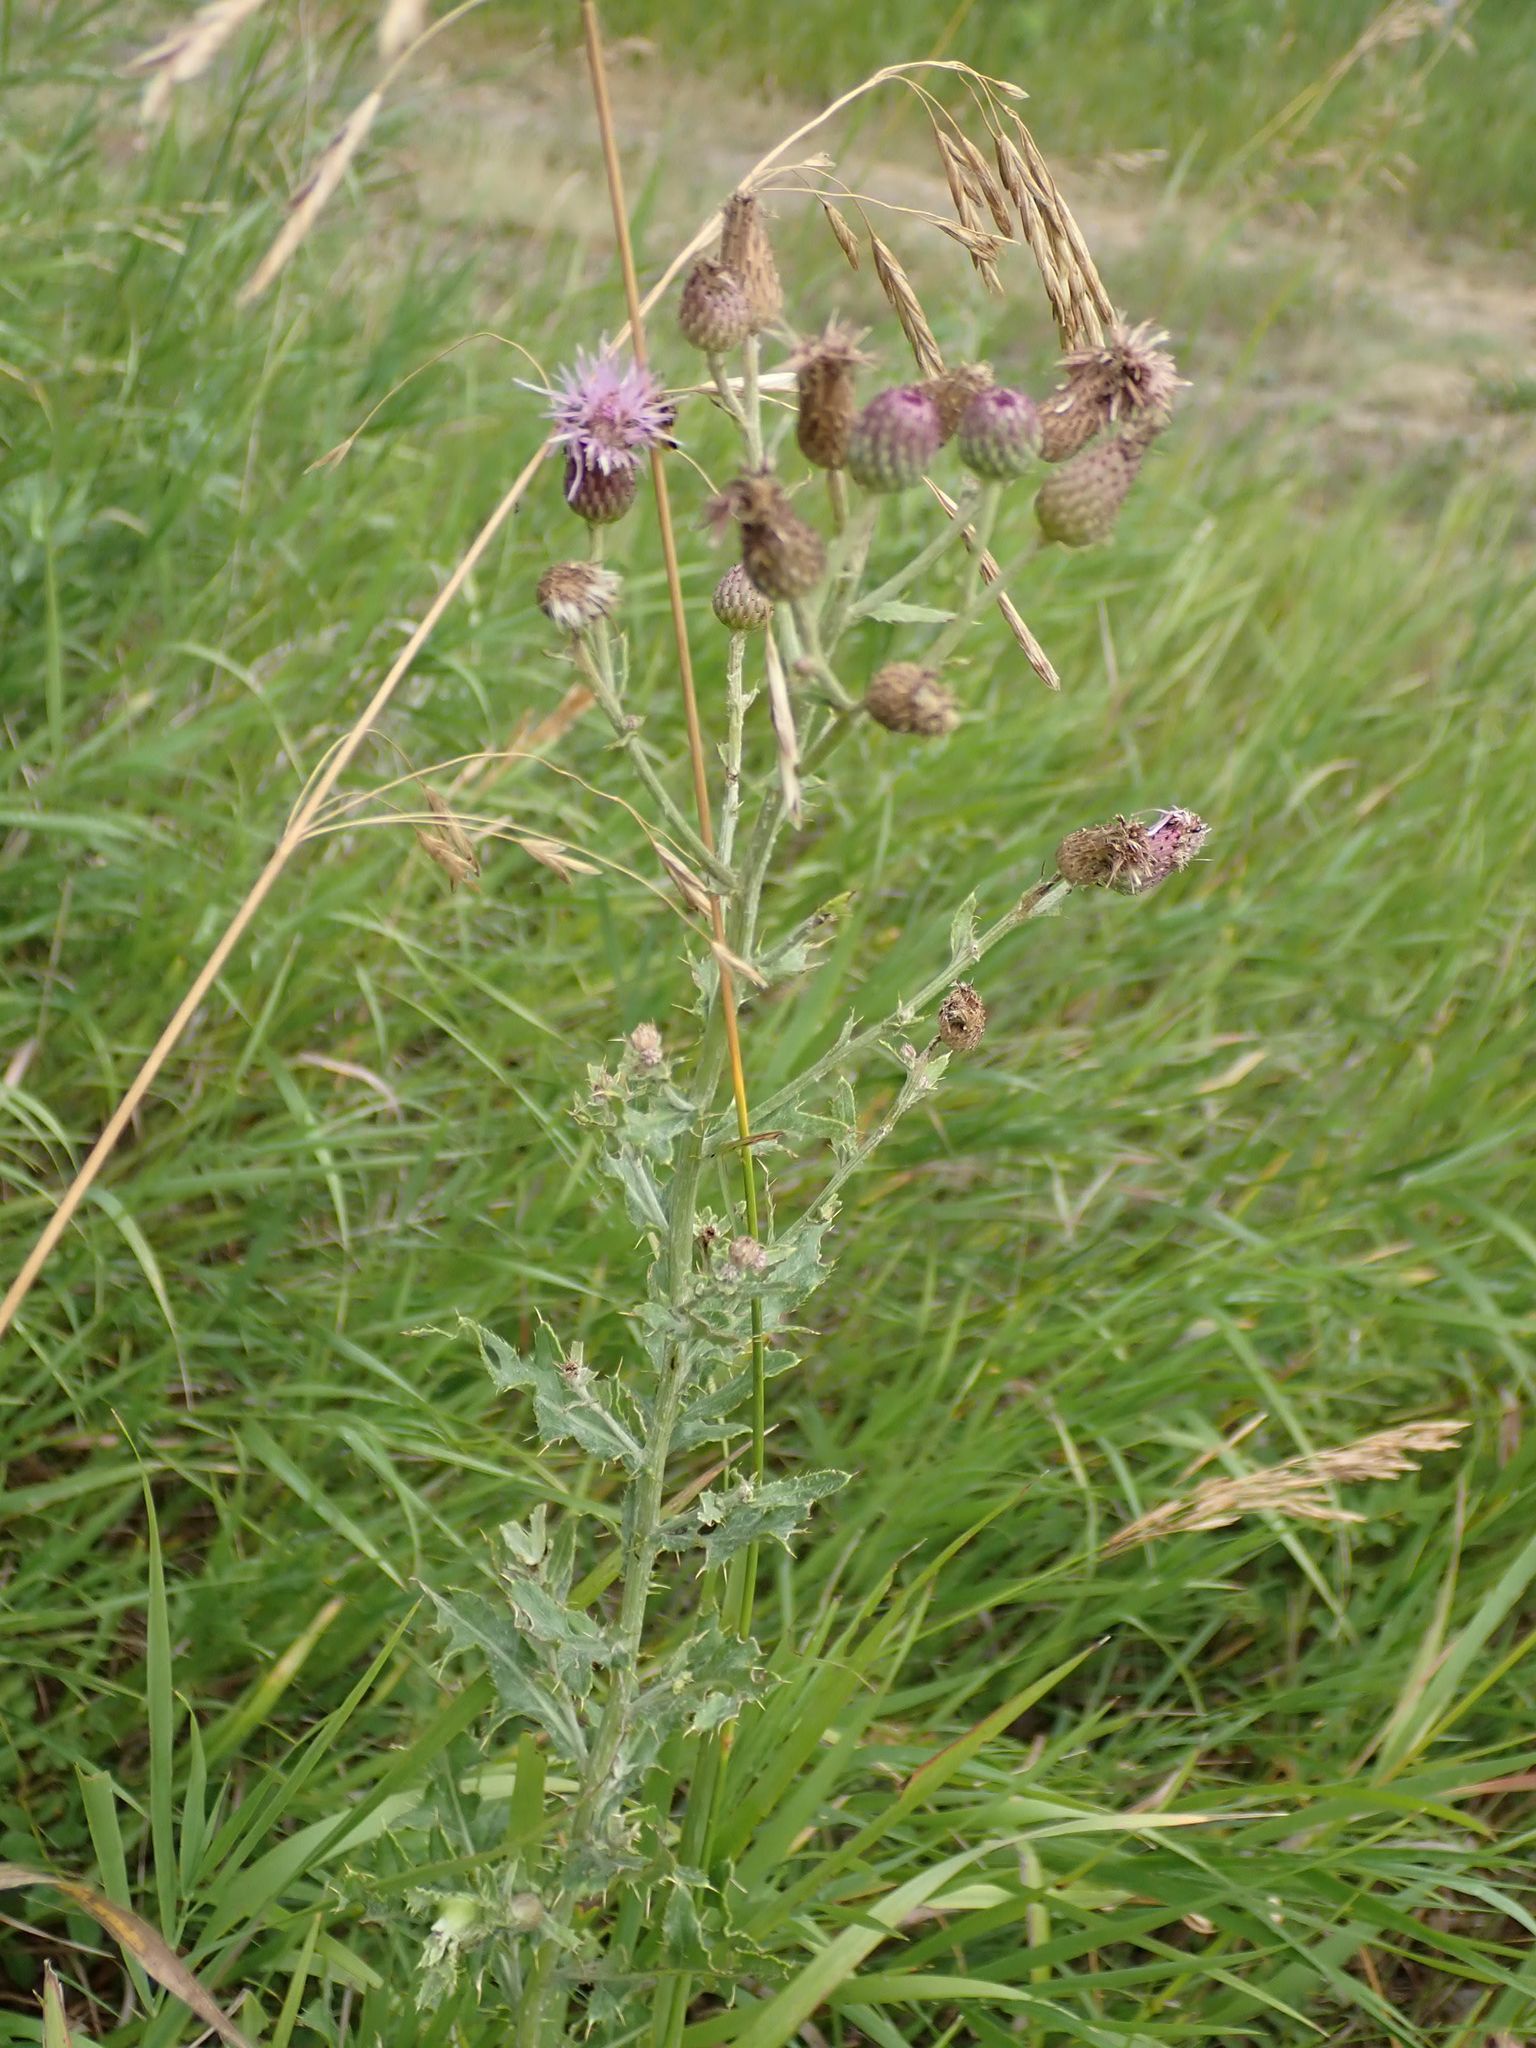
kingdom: Plantae
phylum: Tracheophyta
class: Magnoliopsida
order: Asterales
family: Asteraceae
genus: Cirsium
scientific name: Cirsium arvense
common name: Creeping thistle
